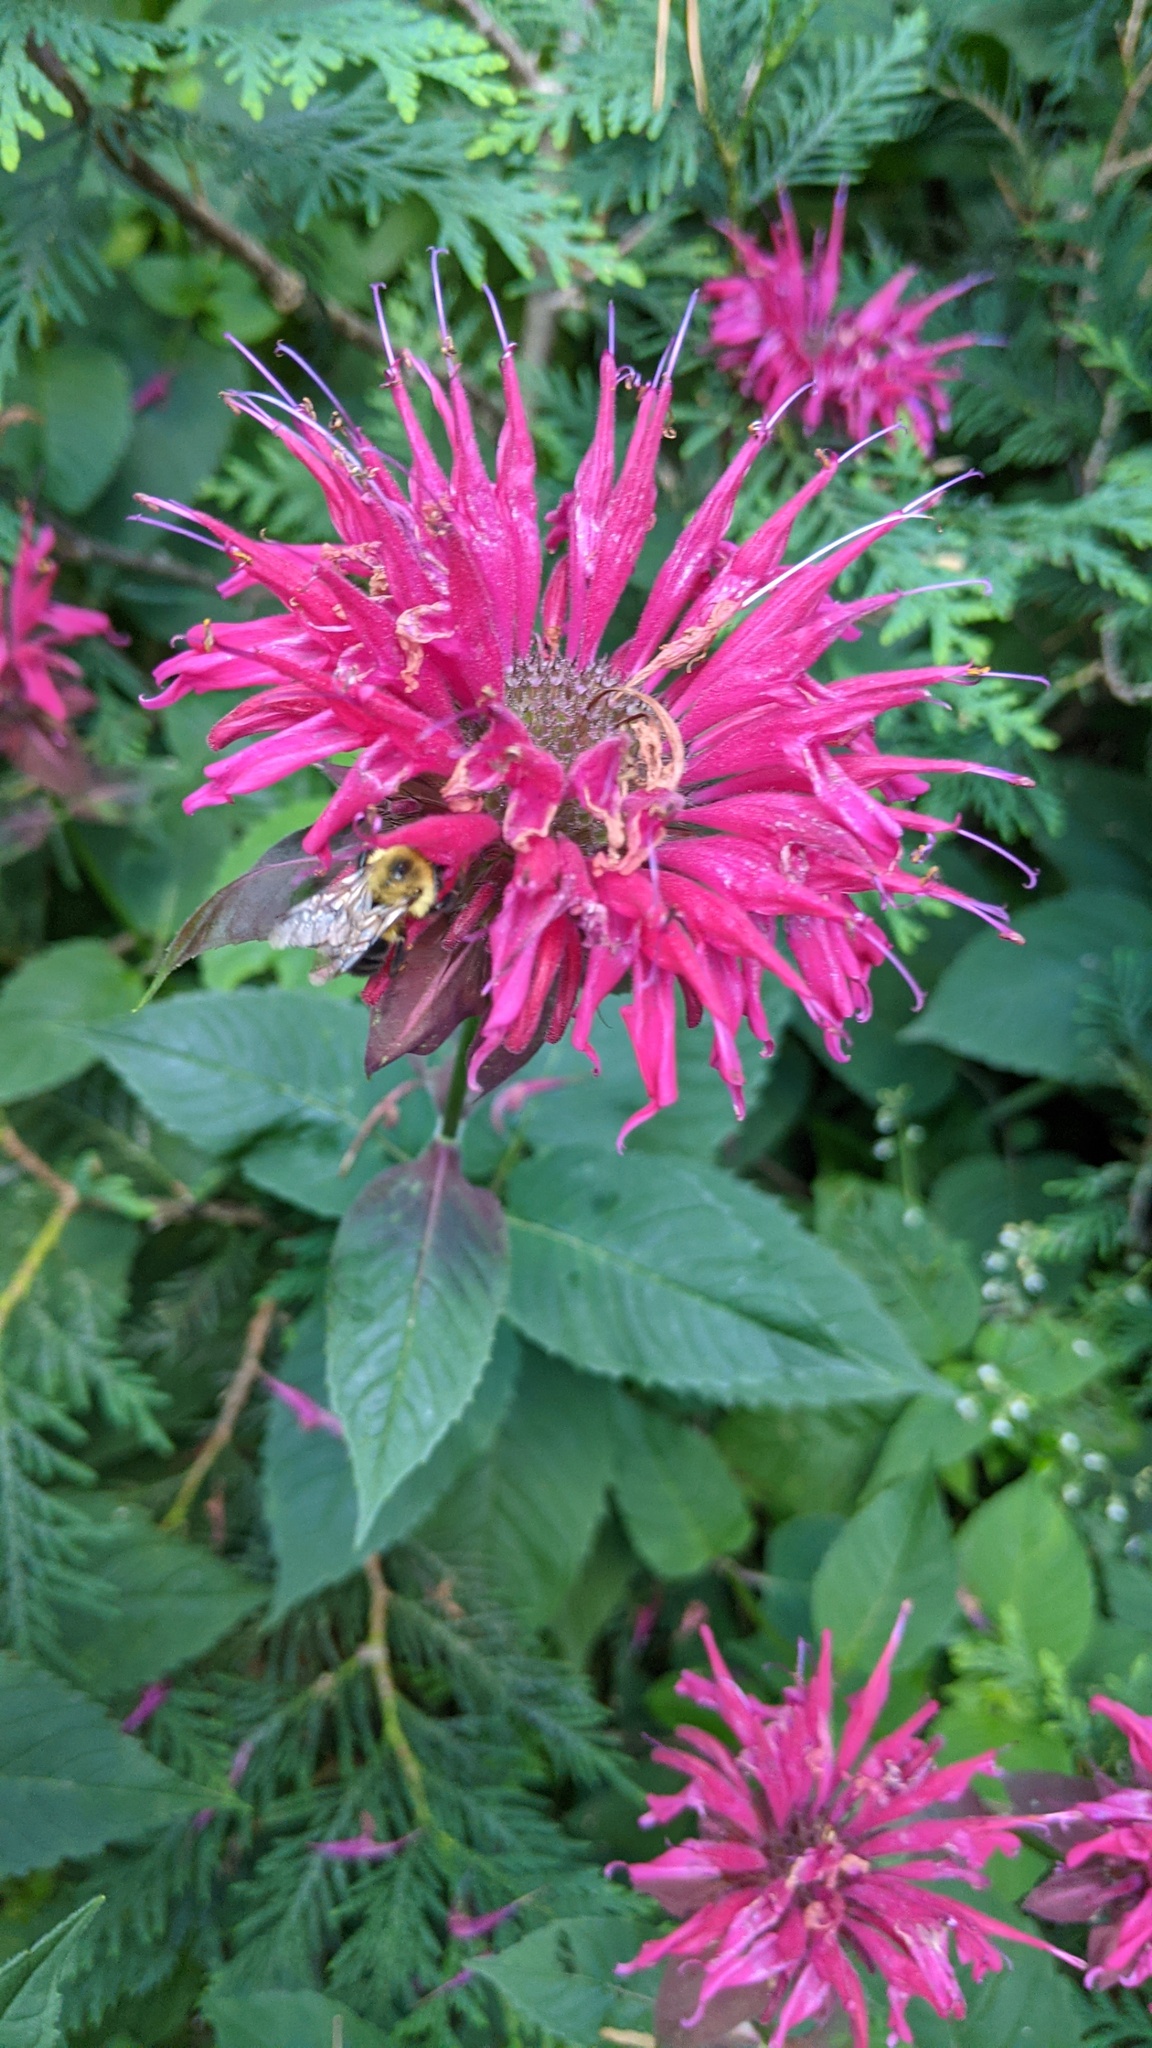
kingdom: Animalia
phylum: Arthropoda
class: Insecta
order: Hymenoptera
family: Apidae
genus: Bombus
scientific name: Bombus bimaculatus
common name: Two-spotted bumble bee
